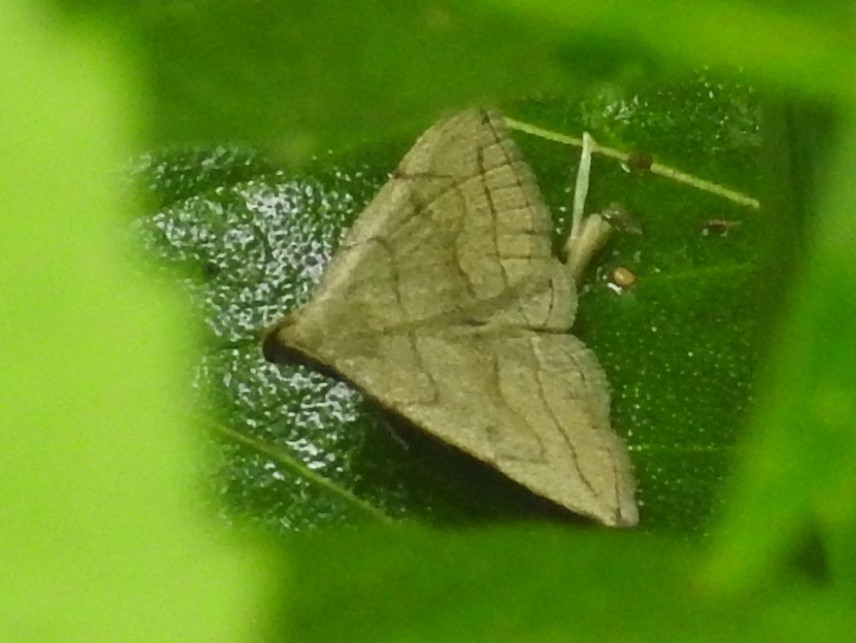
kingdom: Animalia
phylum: Arthropoda
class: Insecta
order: Lepidoptera
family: Erebidae
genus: Zanclognatha
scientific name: Zanclognatha pedipilalis
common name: Grayish fan-foot
